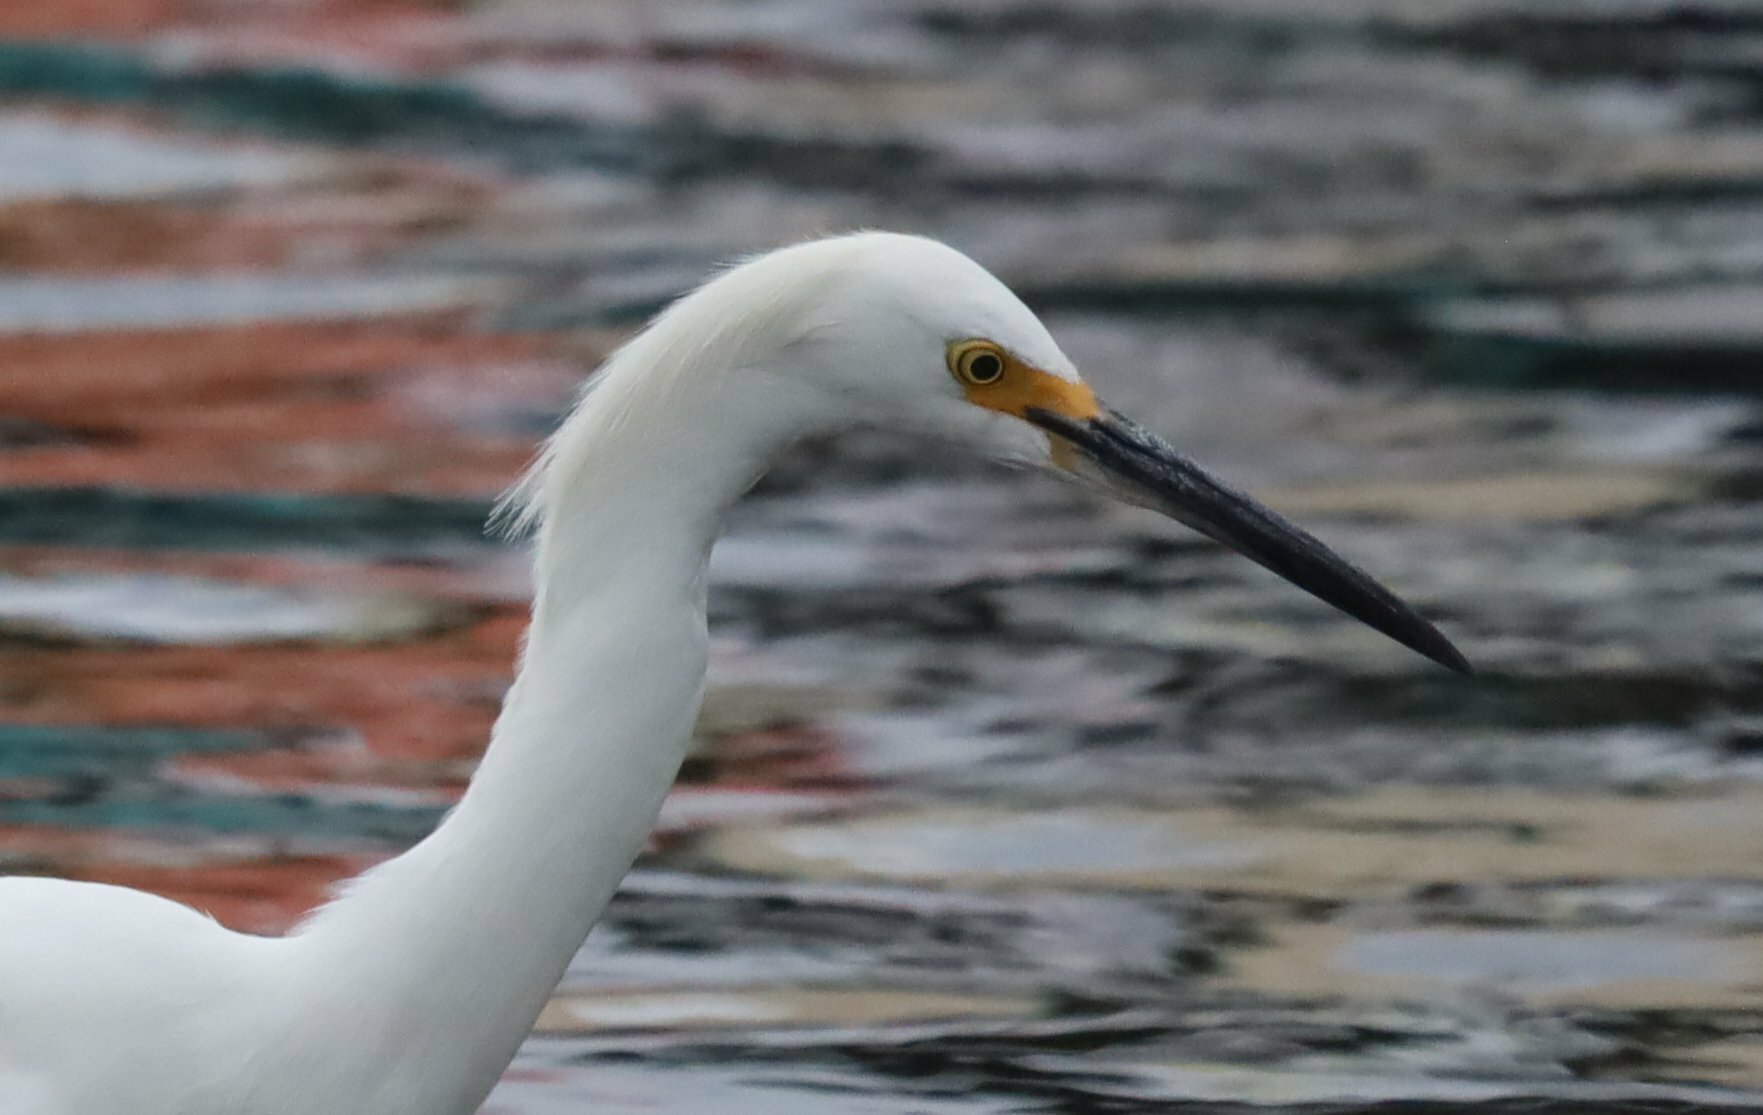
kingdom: Animalia
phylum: Chordata
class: Aves
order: Pelecaniformes
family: Ardeidae
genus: Egretta
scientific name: Egretta thula
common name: Snowy egret
